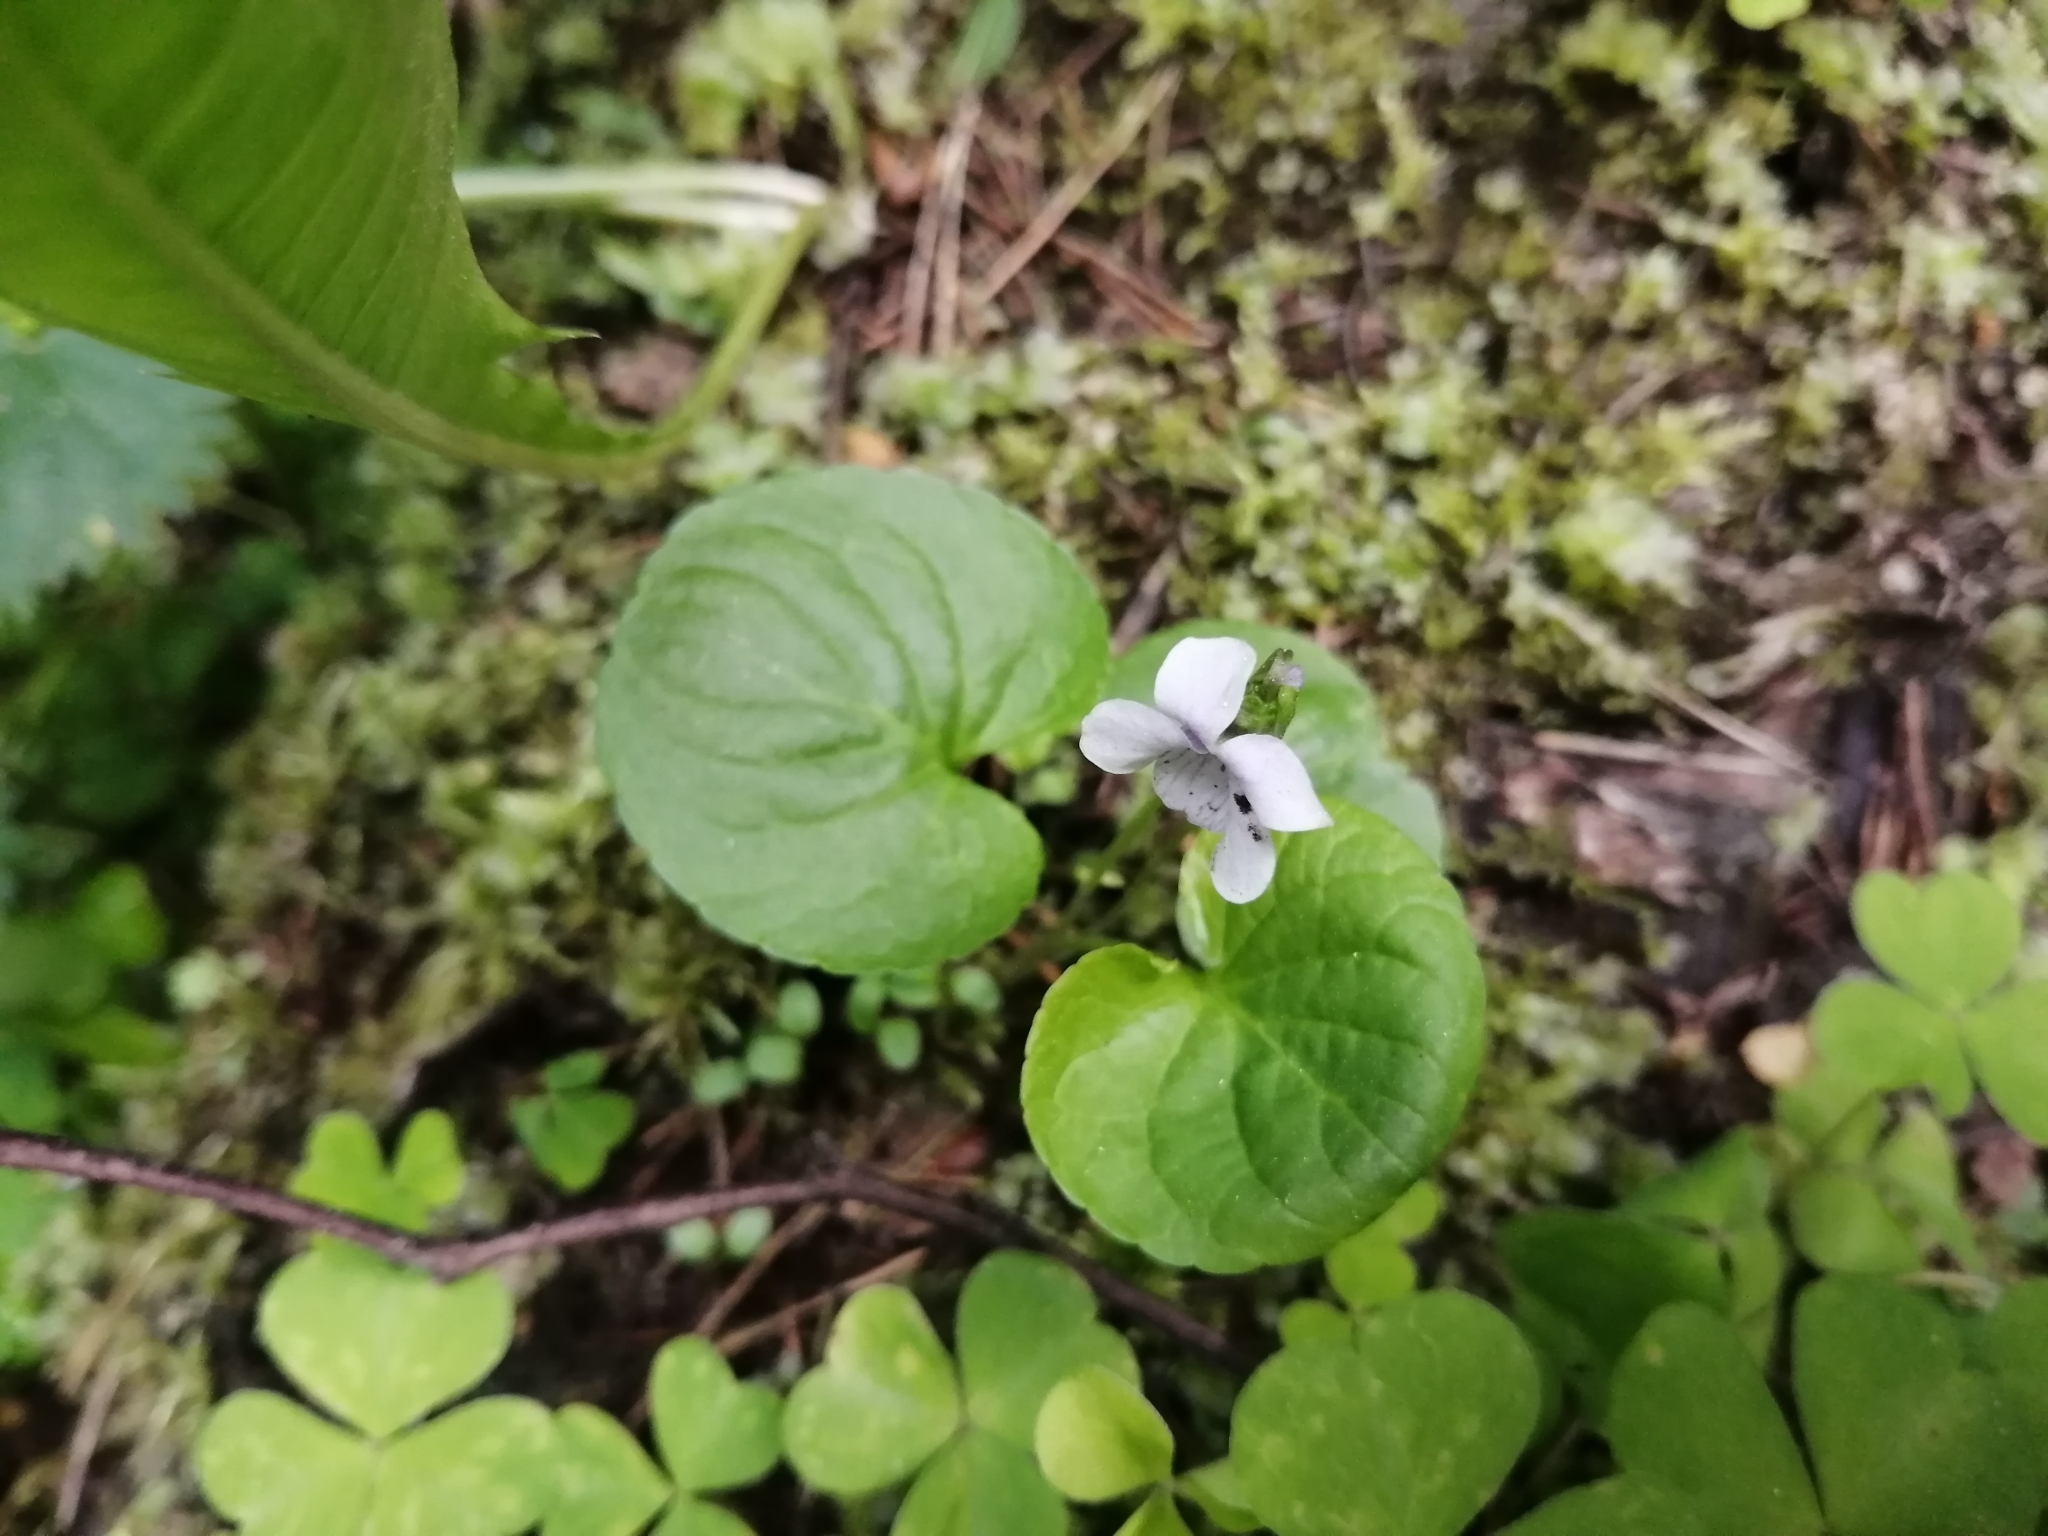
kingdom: Plantae
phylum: Tracheophyta
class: Magnoliopsida
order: Malpighiales
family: Violaceae
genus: Viola
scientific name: Viola palustris
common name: Marsh violet
